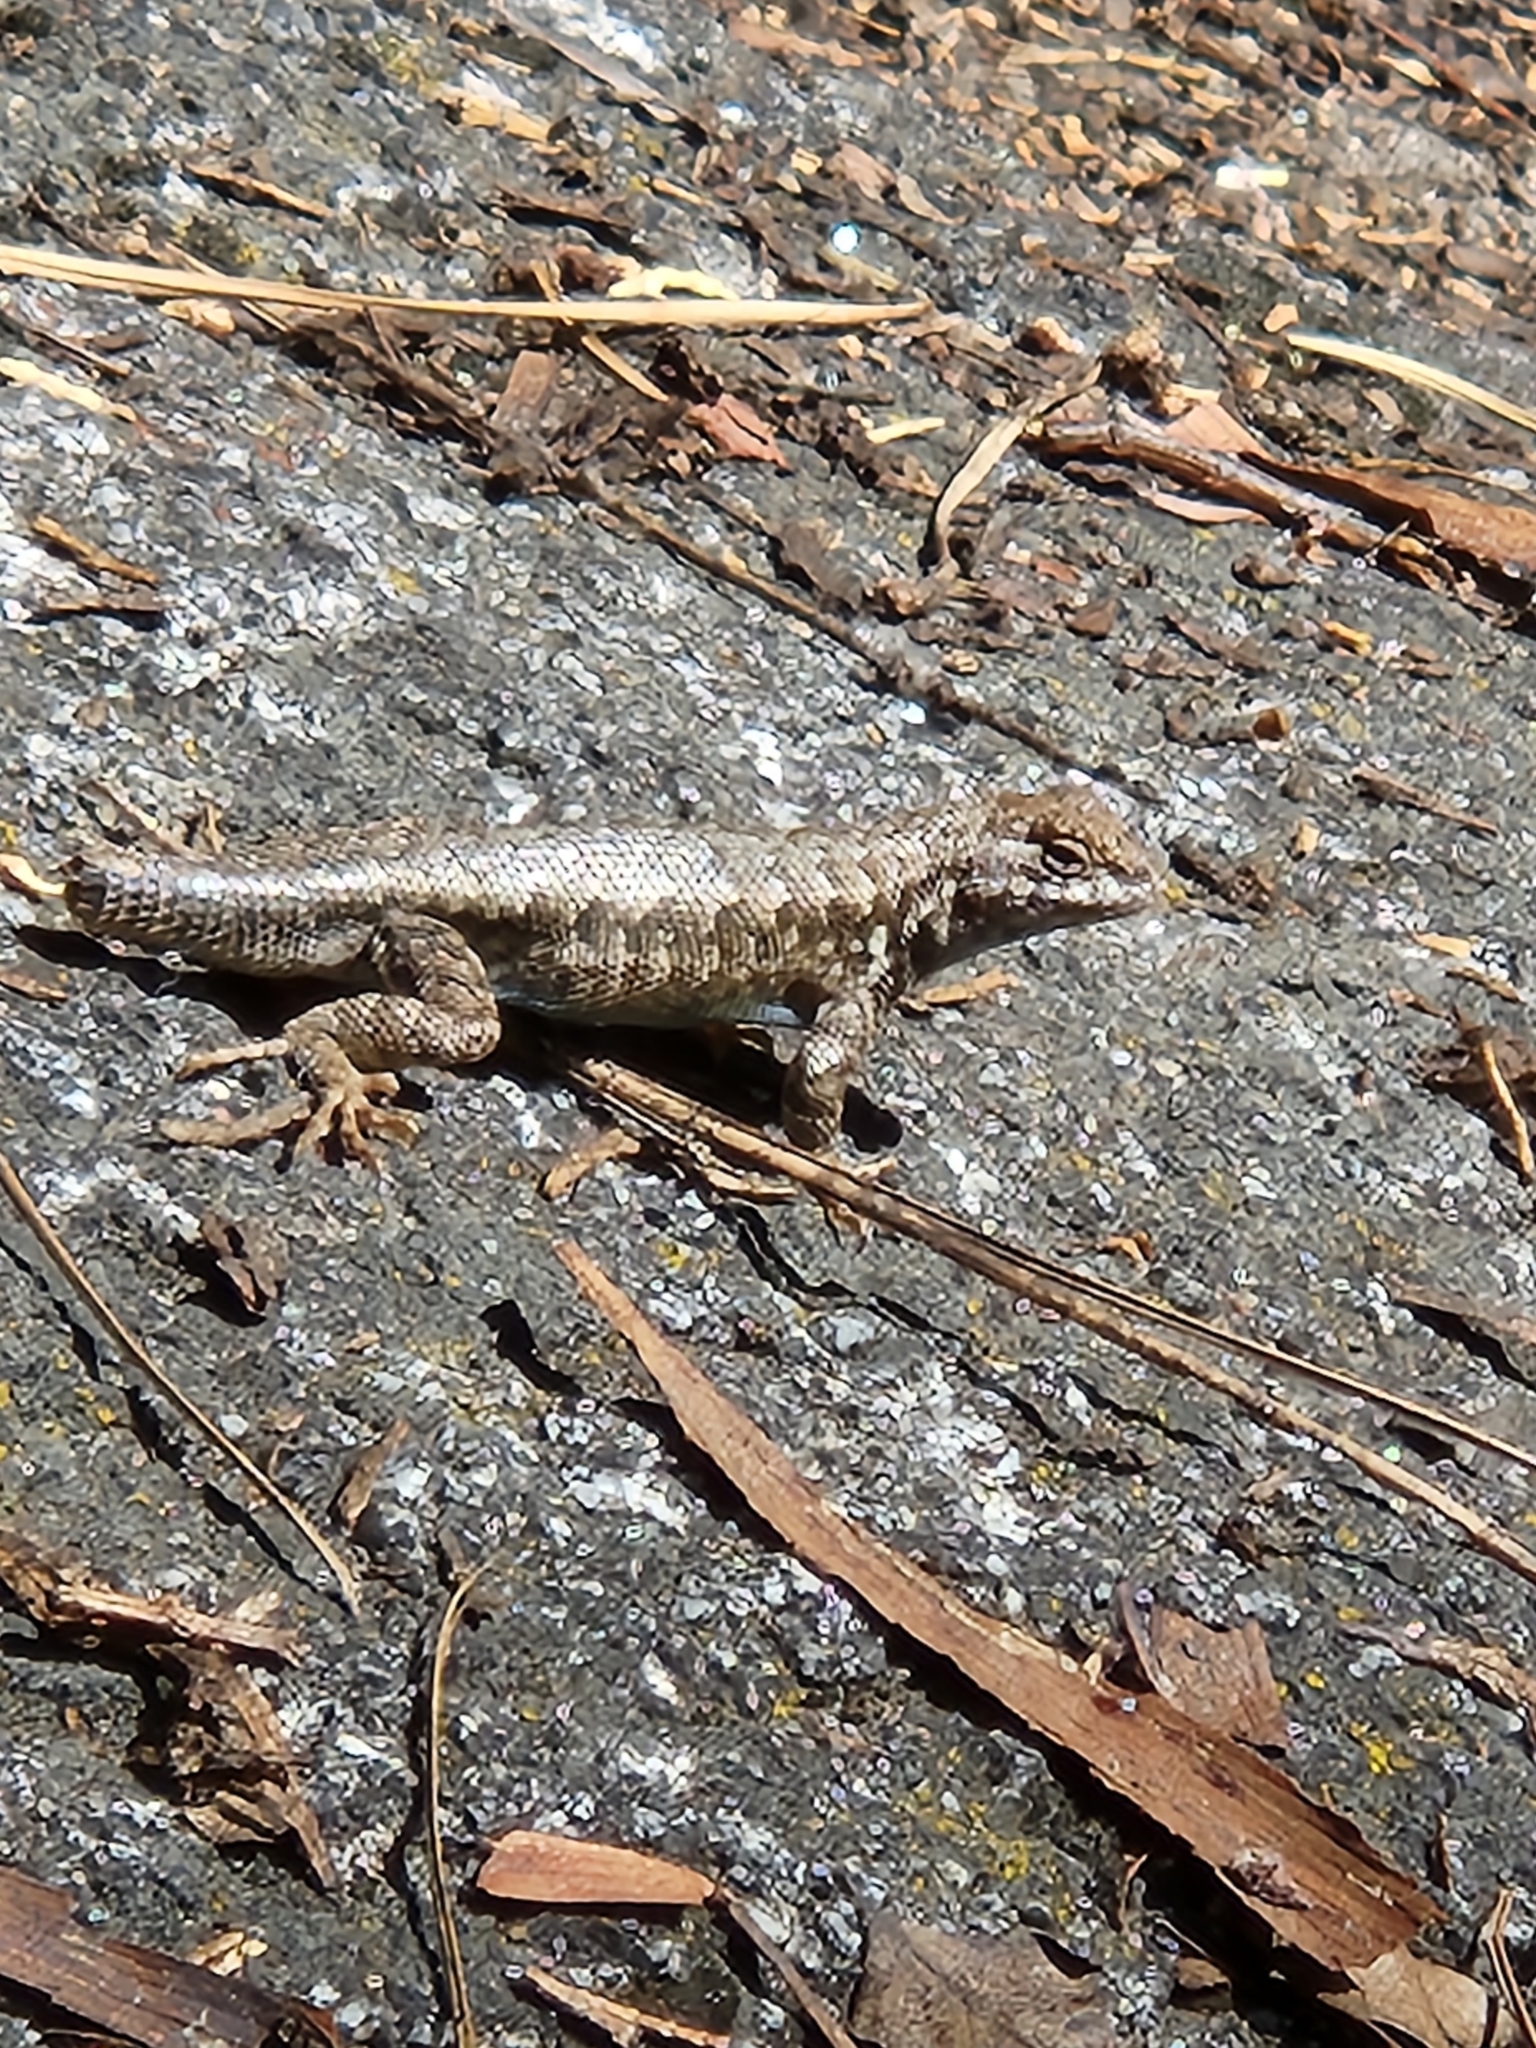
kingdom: Animalia
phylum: Chordata
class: Squamata
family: Phrynosomatidae
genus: Sceloporus
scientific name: Sceloporus graciosus
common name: Sagebrush lizard
